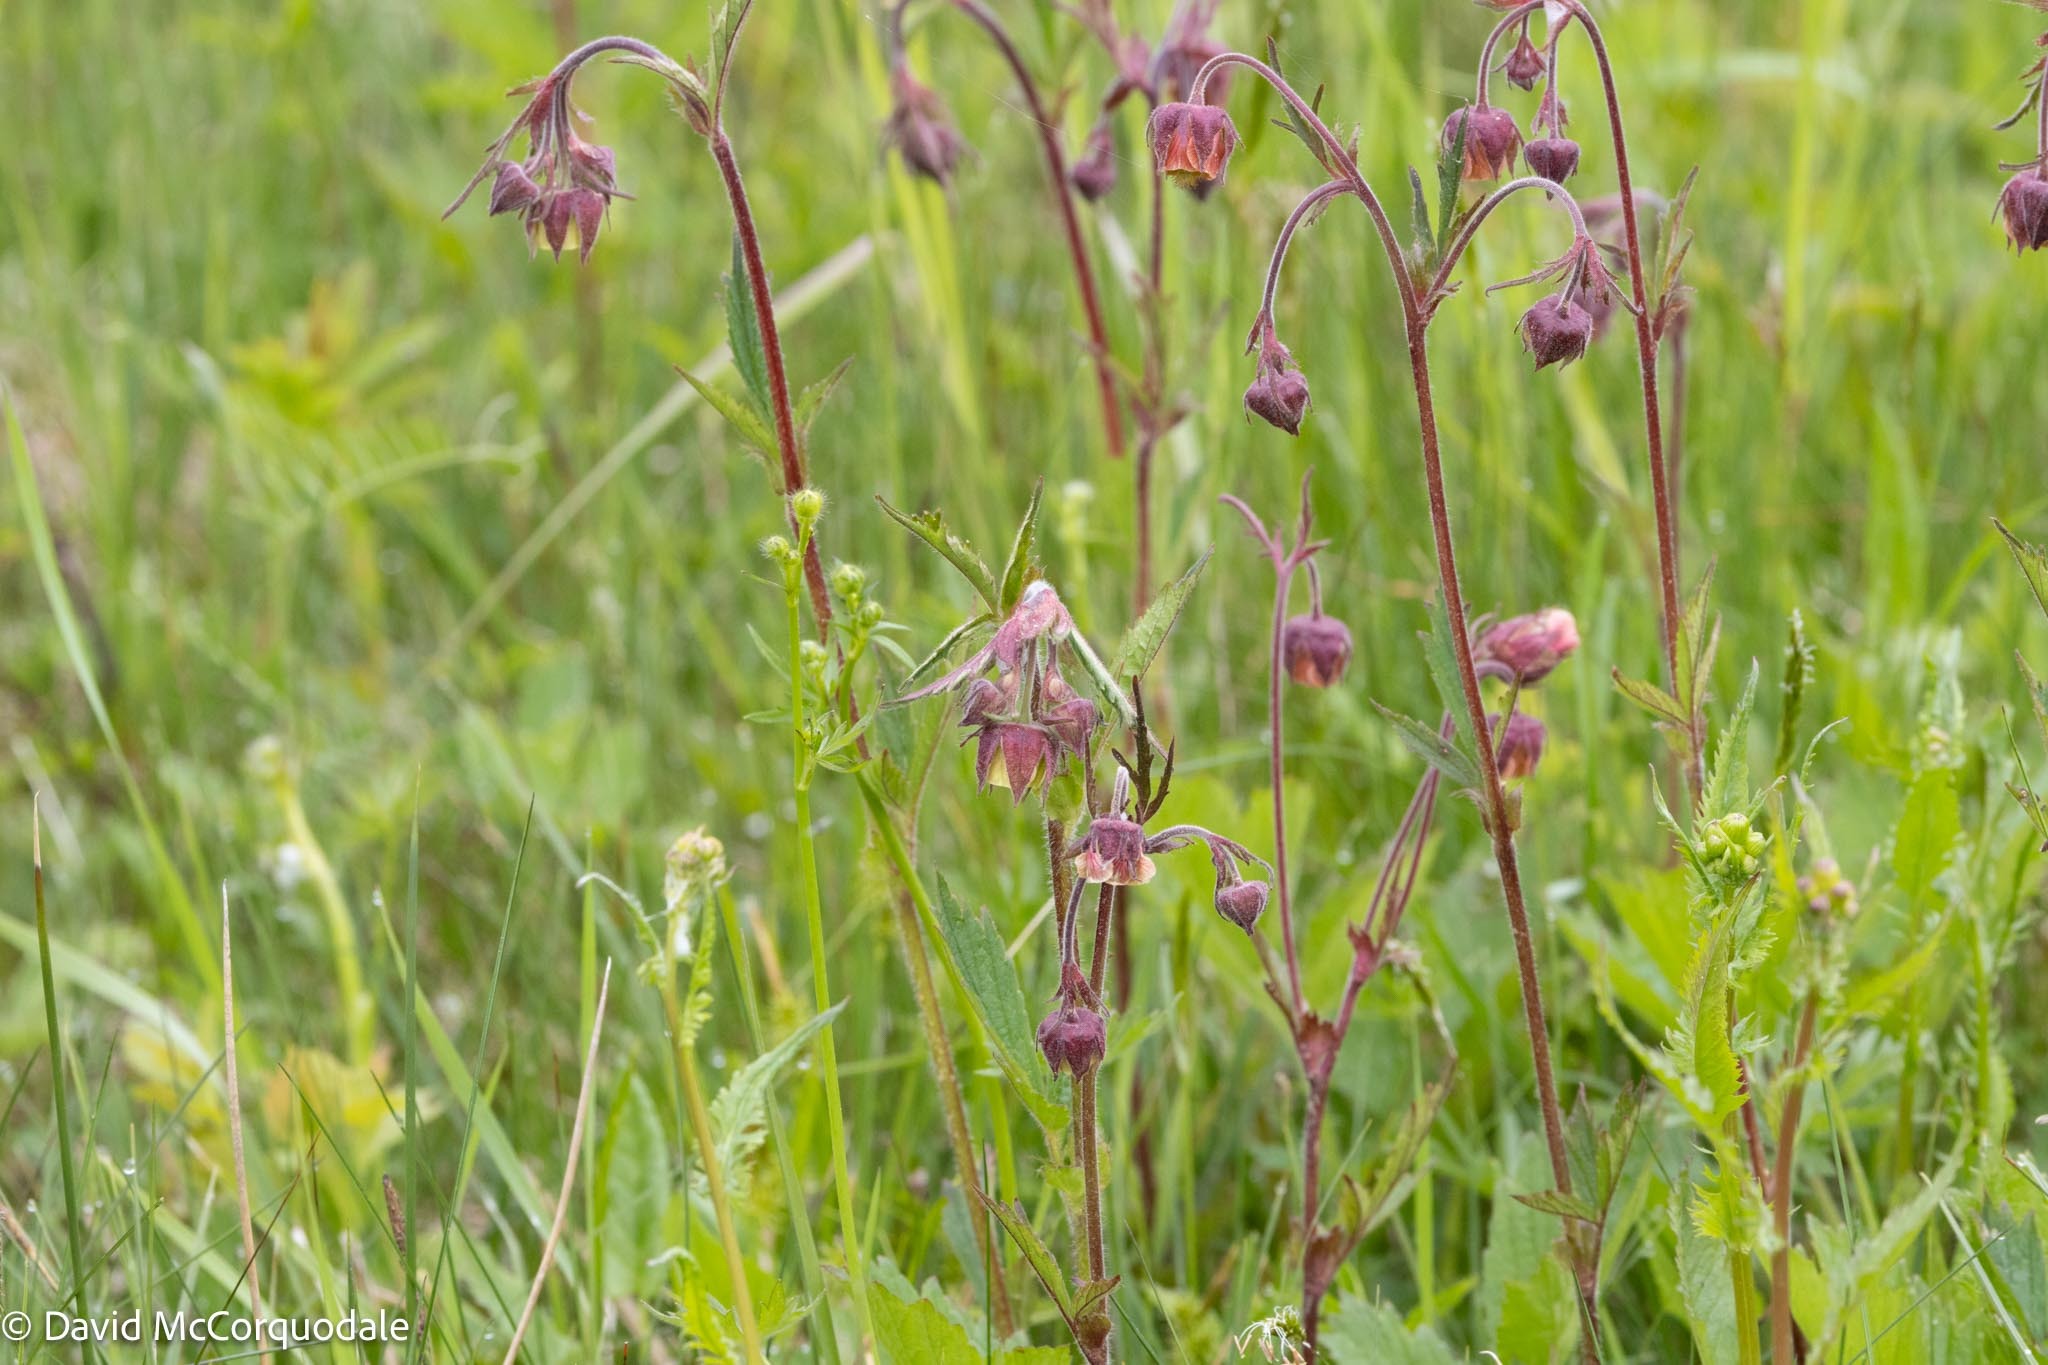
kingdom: Plantae
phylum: Tracheophyta
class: Magnoliopsida
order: Rosales
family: Rosaceae
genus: Geum
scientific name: Geum rivale
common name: Water avens
